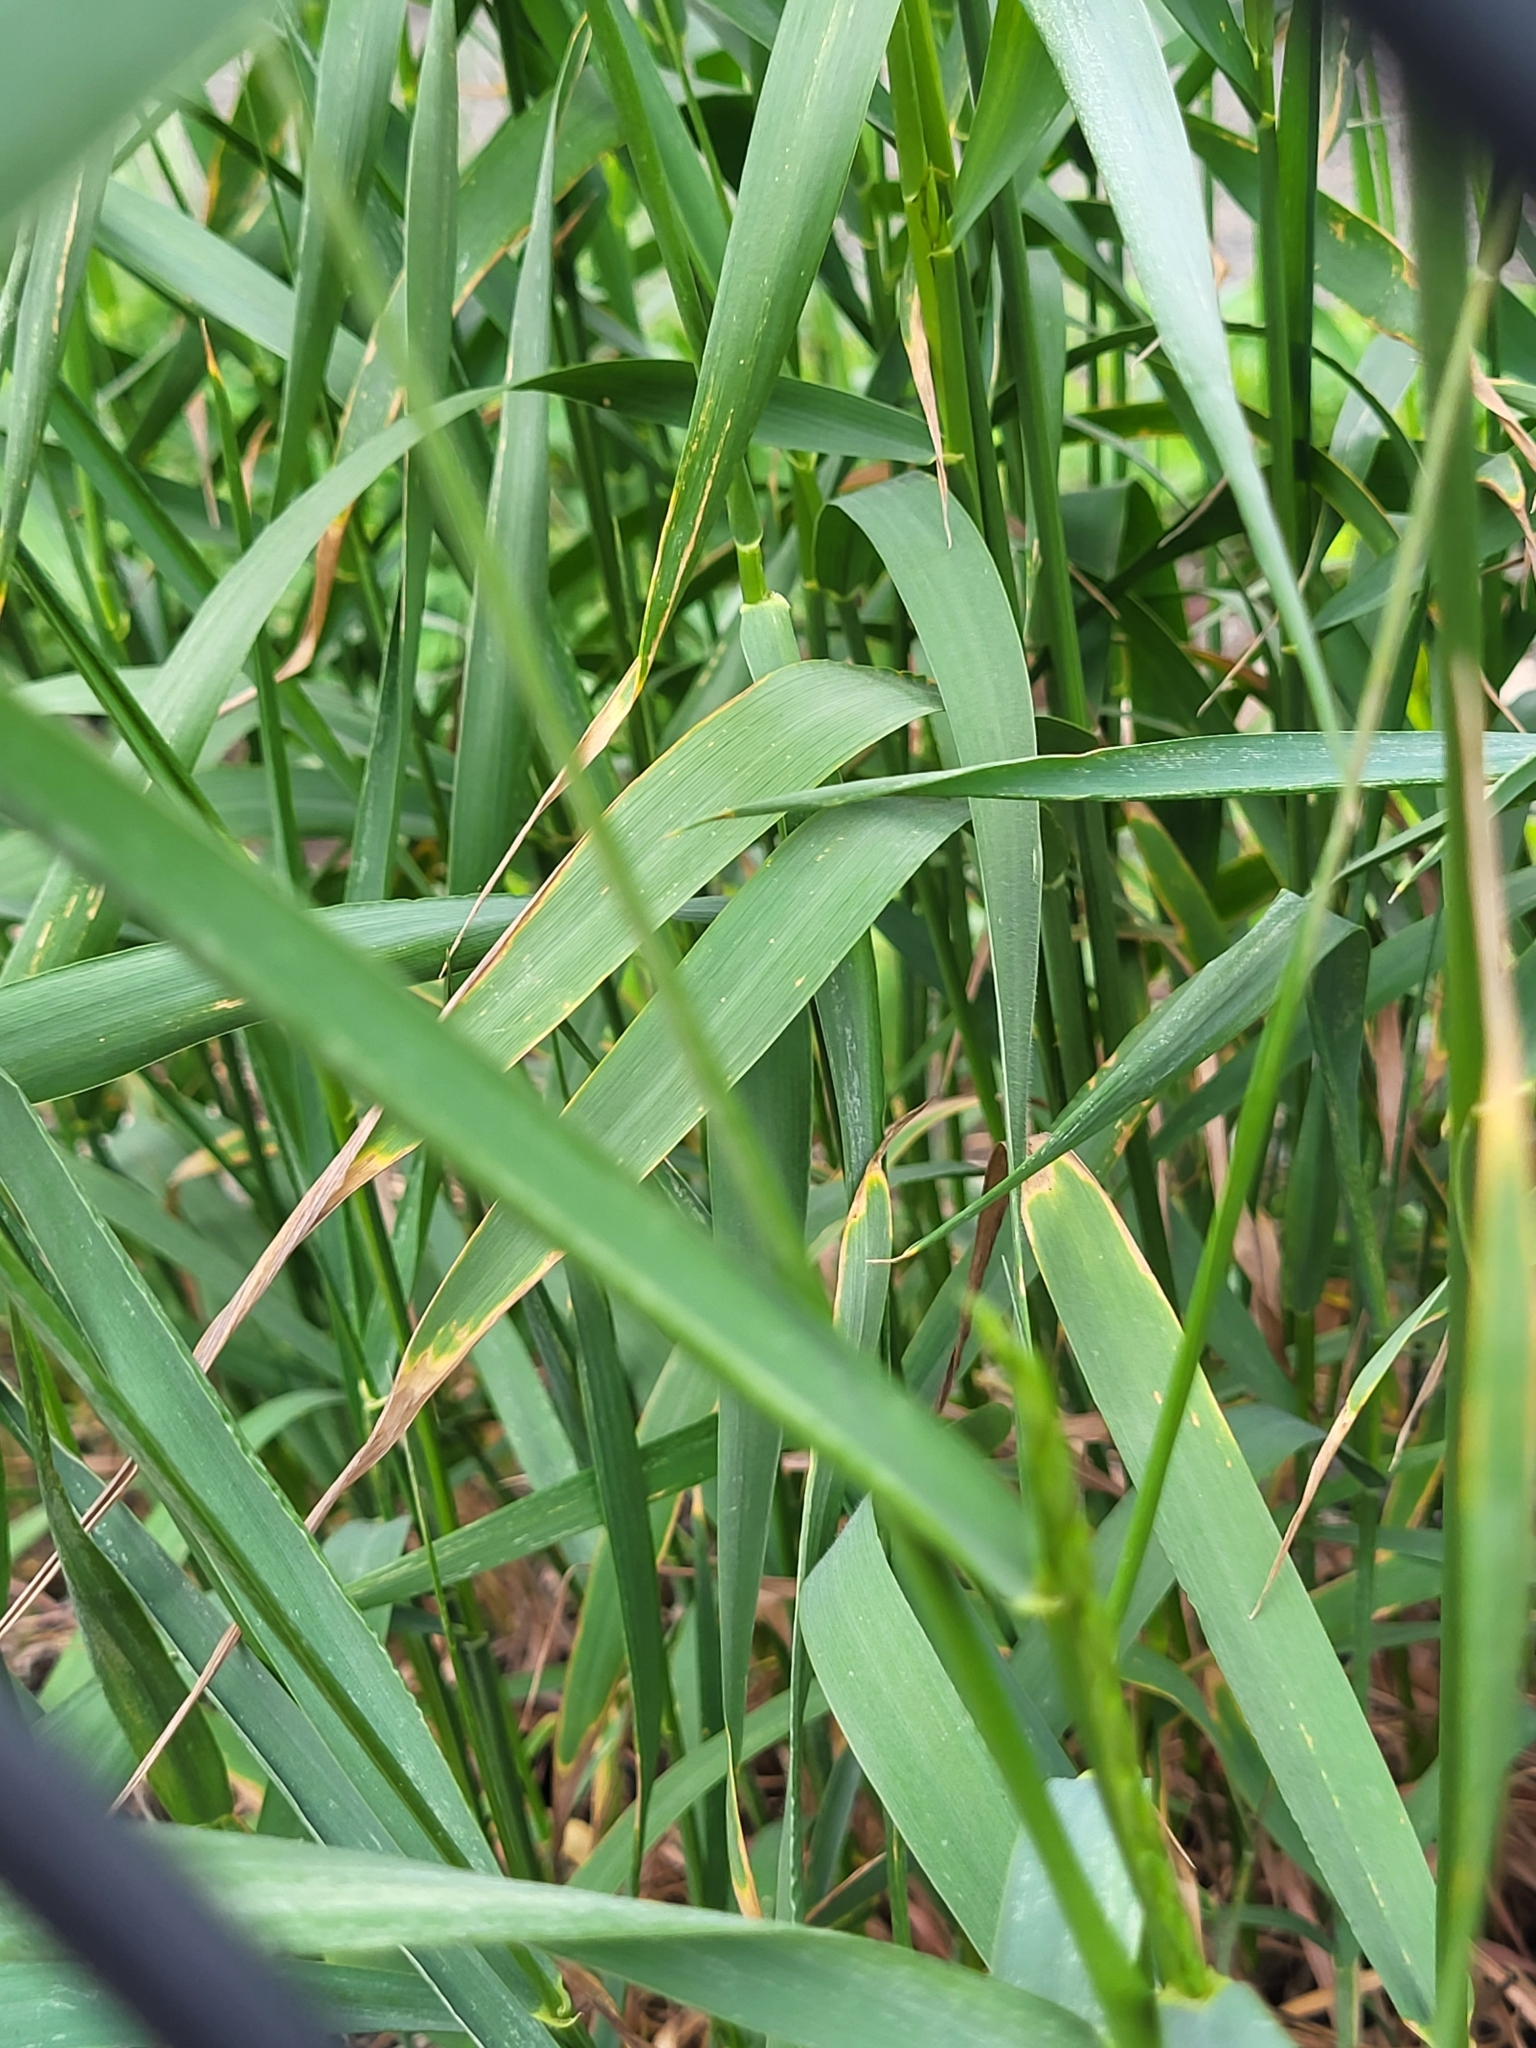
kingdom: Plantae
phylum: Tracheophyta
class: Liliopsida
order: Poales
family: Poaceae
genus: Elymus
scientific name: Elymus repens
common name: Quackgrass
